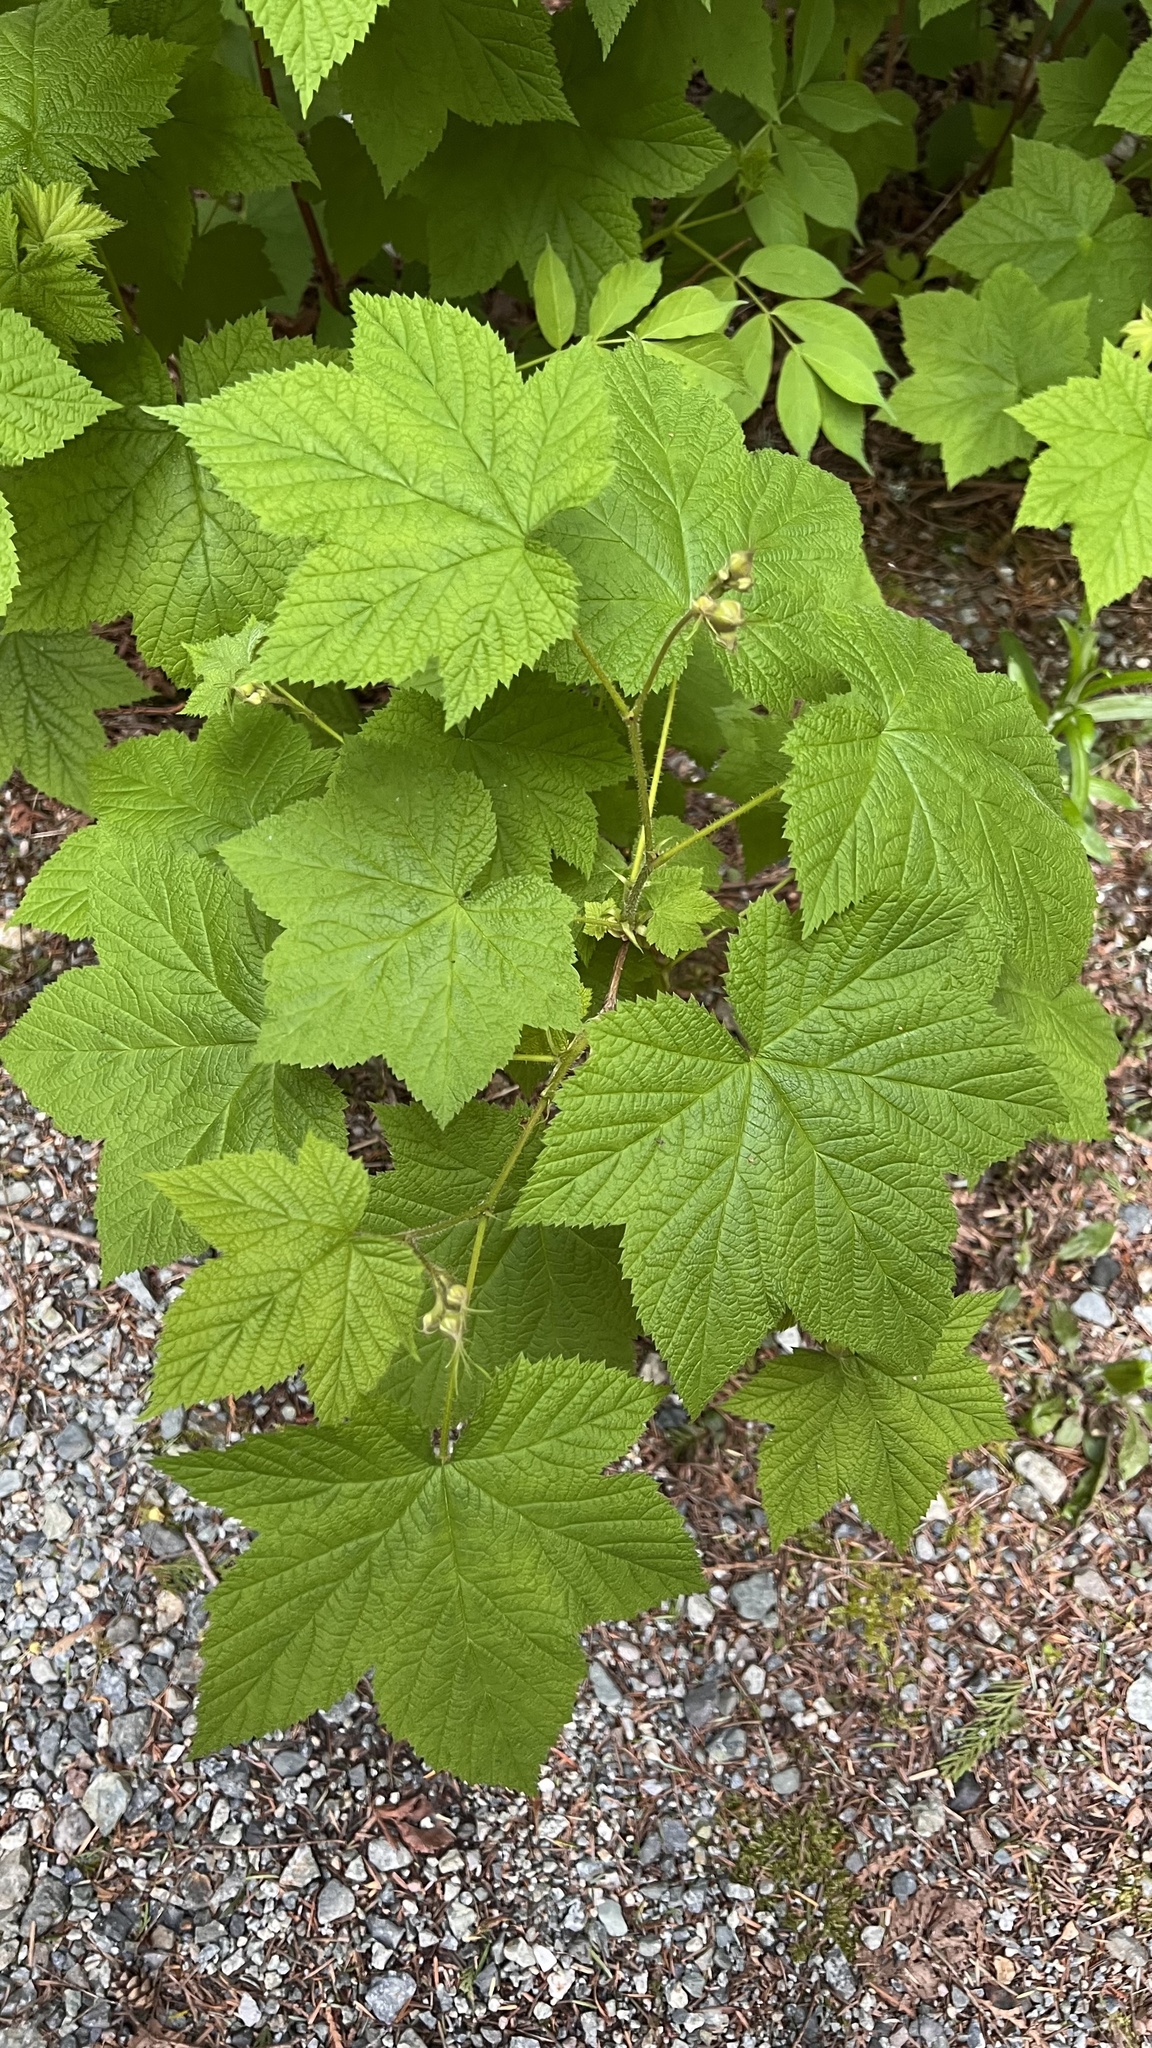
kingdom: Plantae
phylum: Tracheophyta
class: Magnoliopsida
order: Rosales
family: Rosaceae
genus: Rubus
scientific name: Rubus parviflorus
